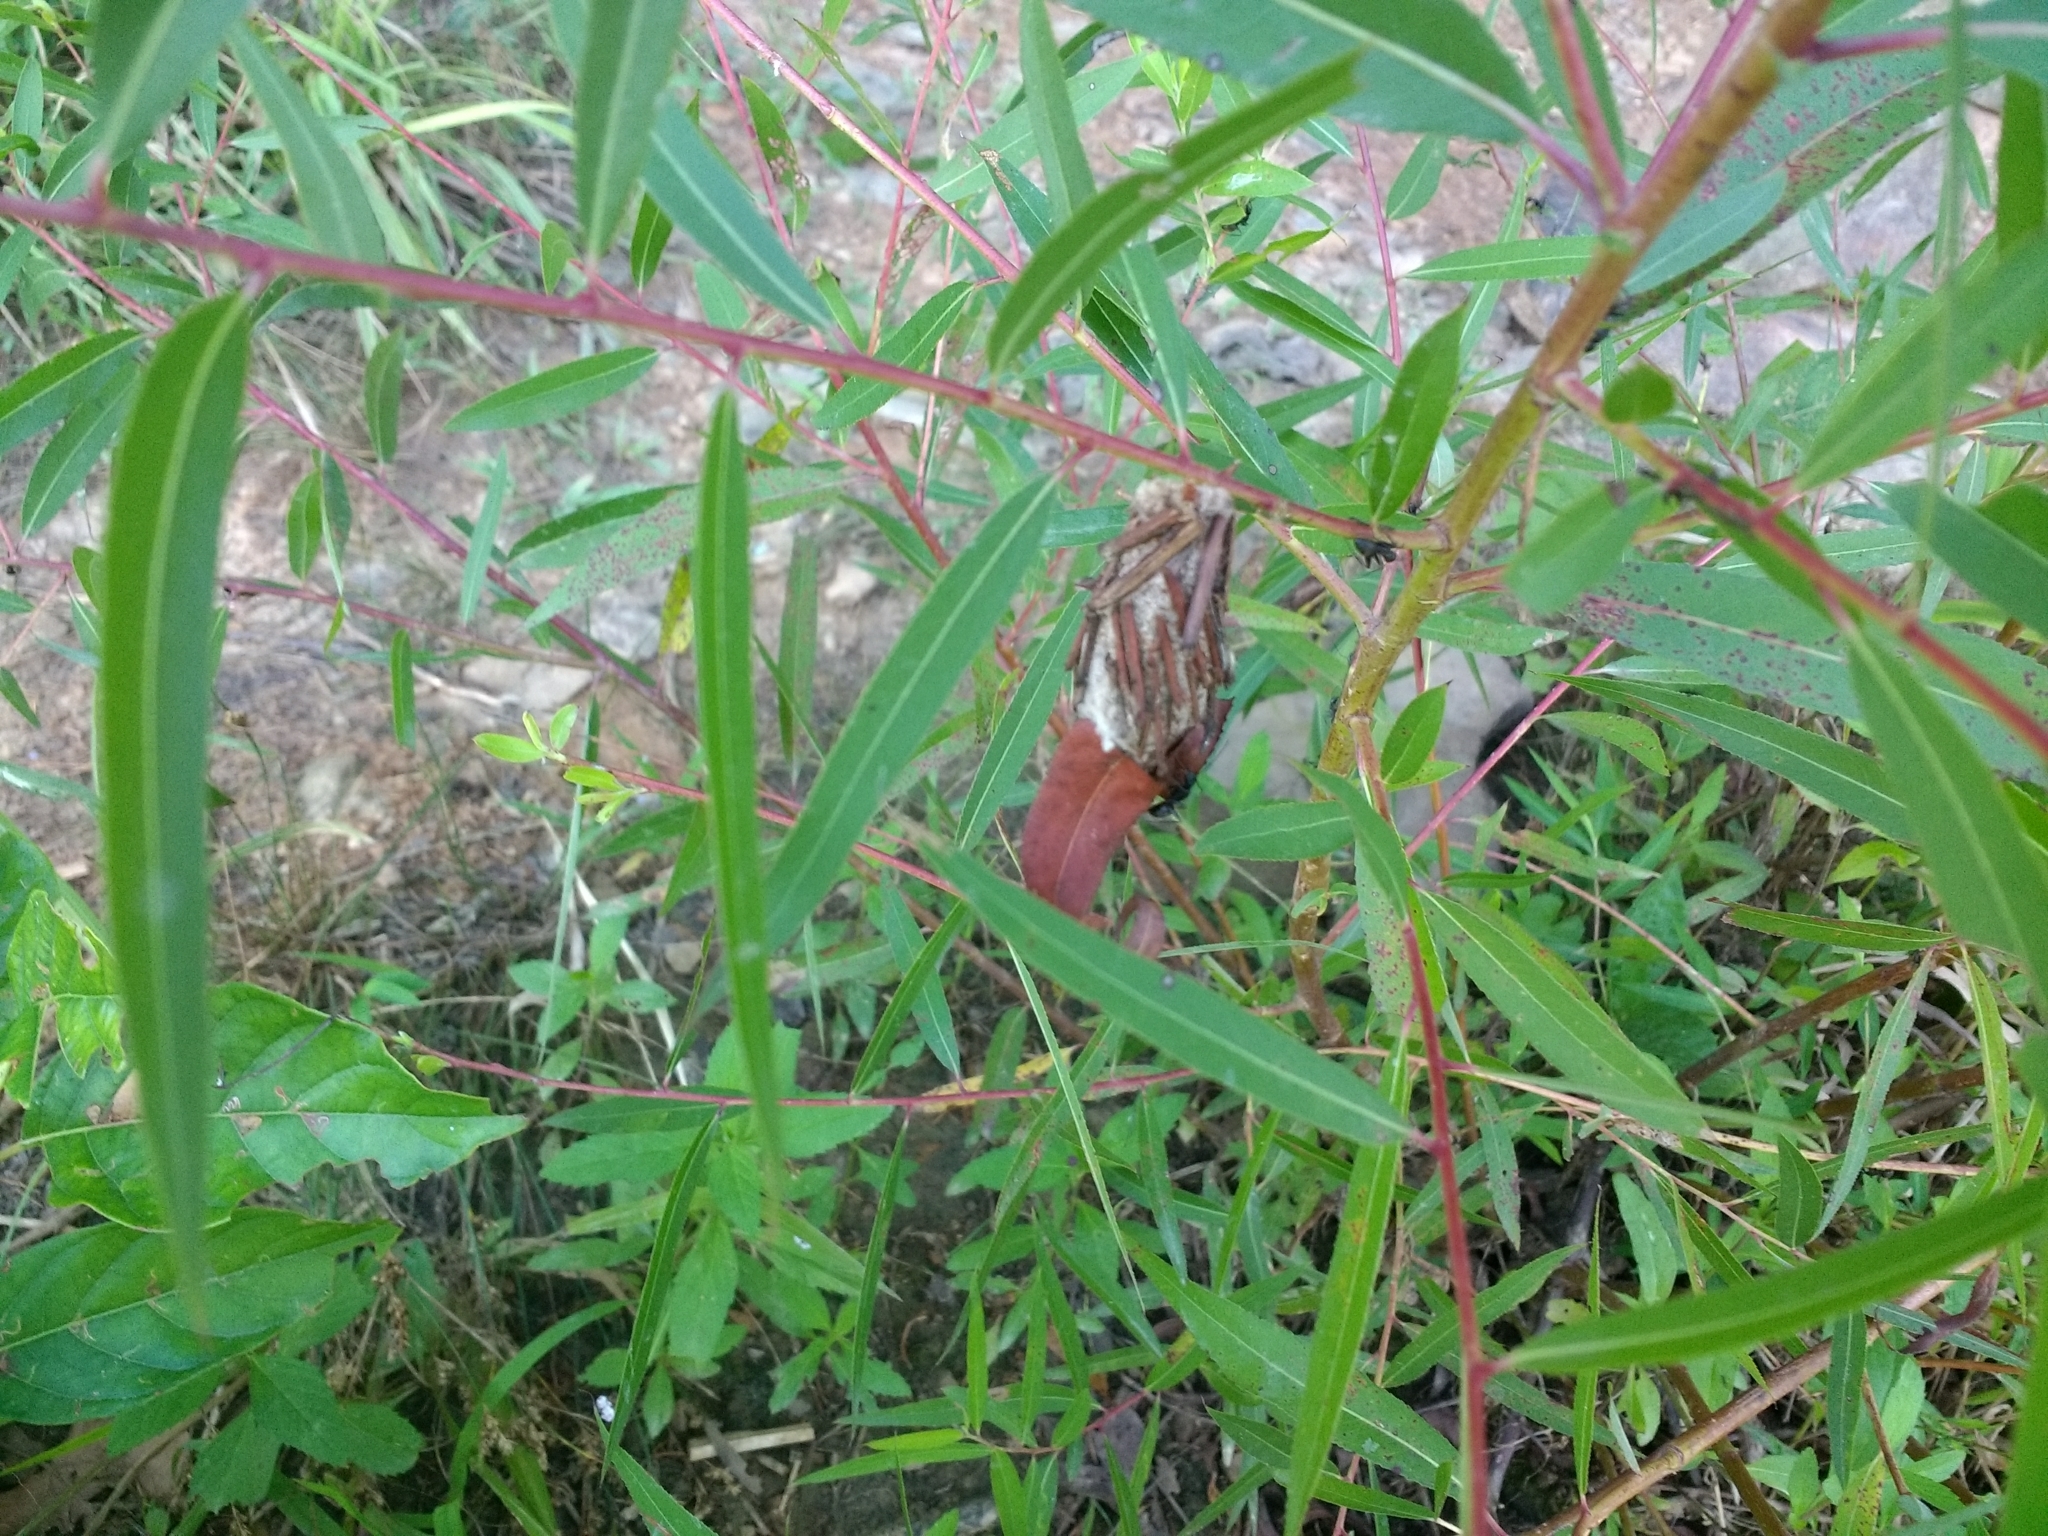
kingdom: Plantae
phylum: Tracheophyta
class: Magnoliopsida
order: Malpighiales
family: Salicaceae
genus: Salix
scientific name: Salix nigra
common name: Black willow
